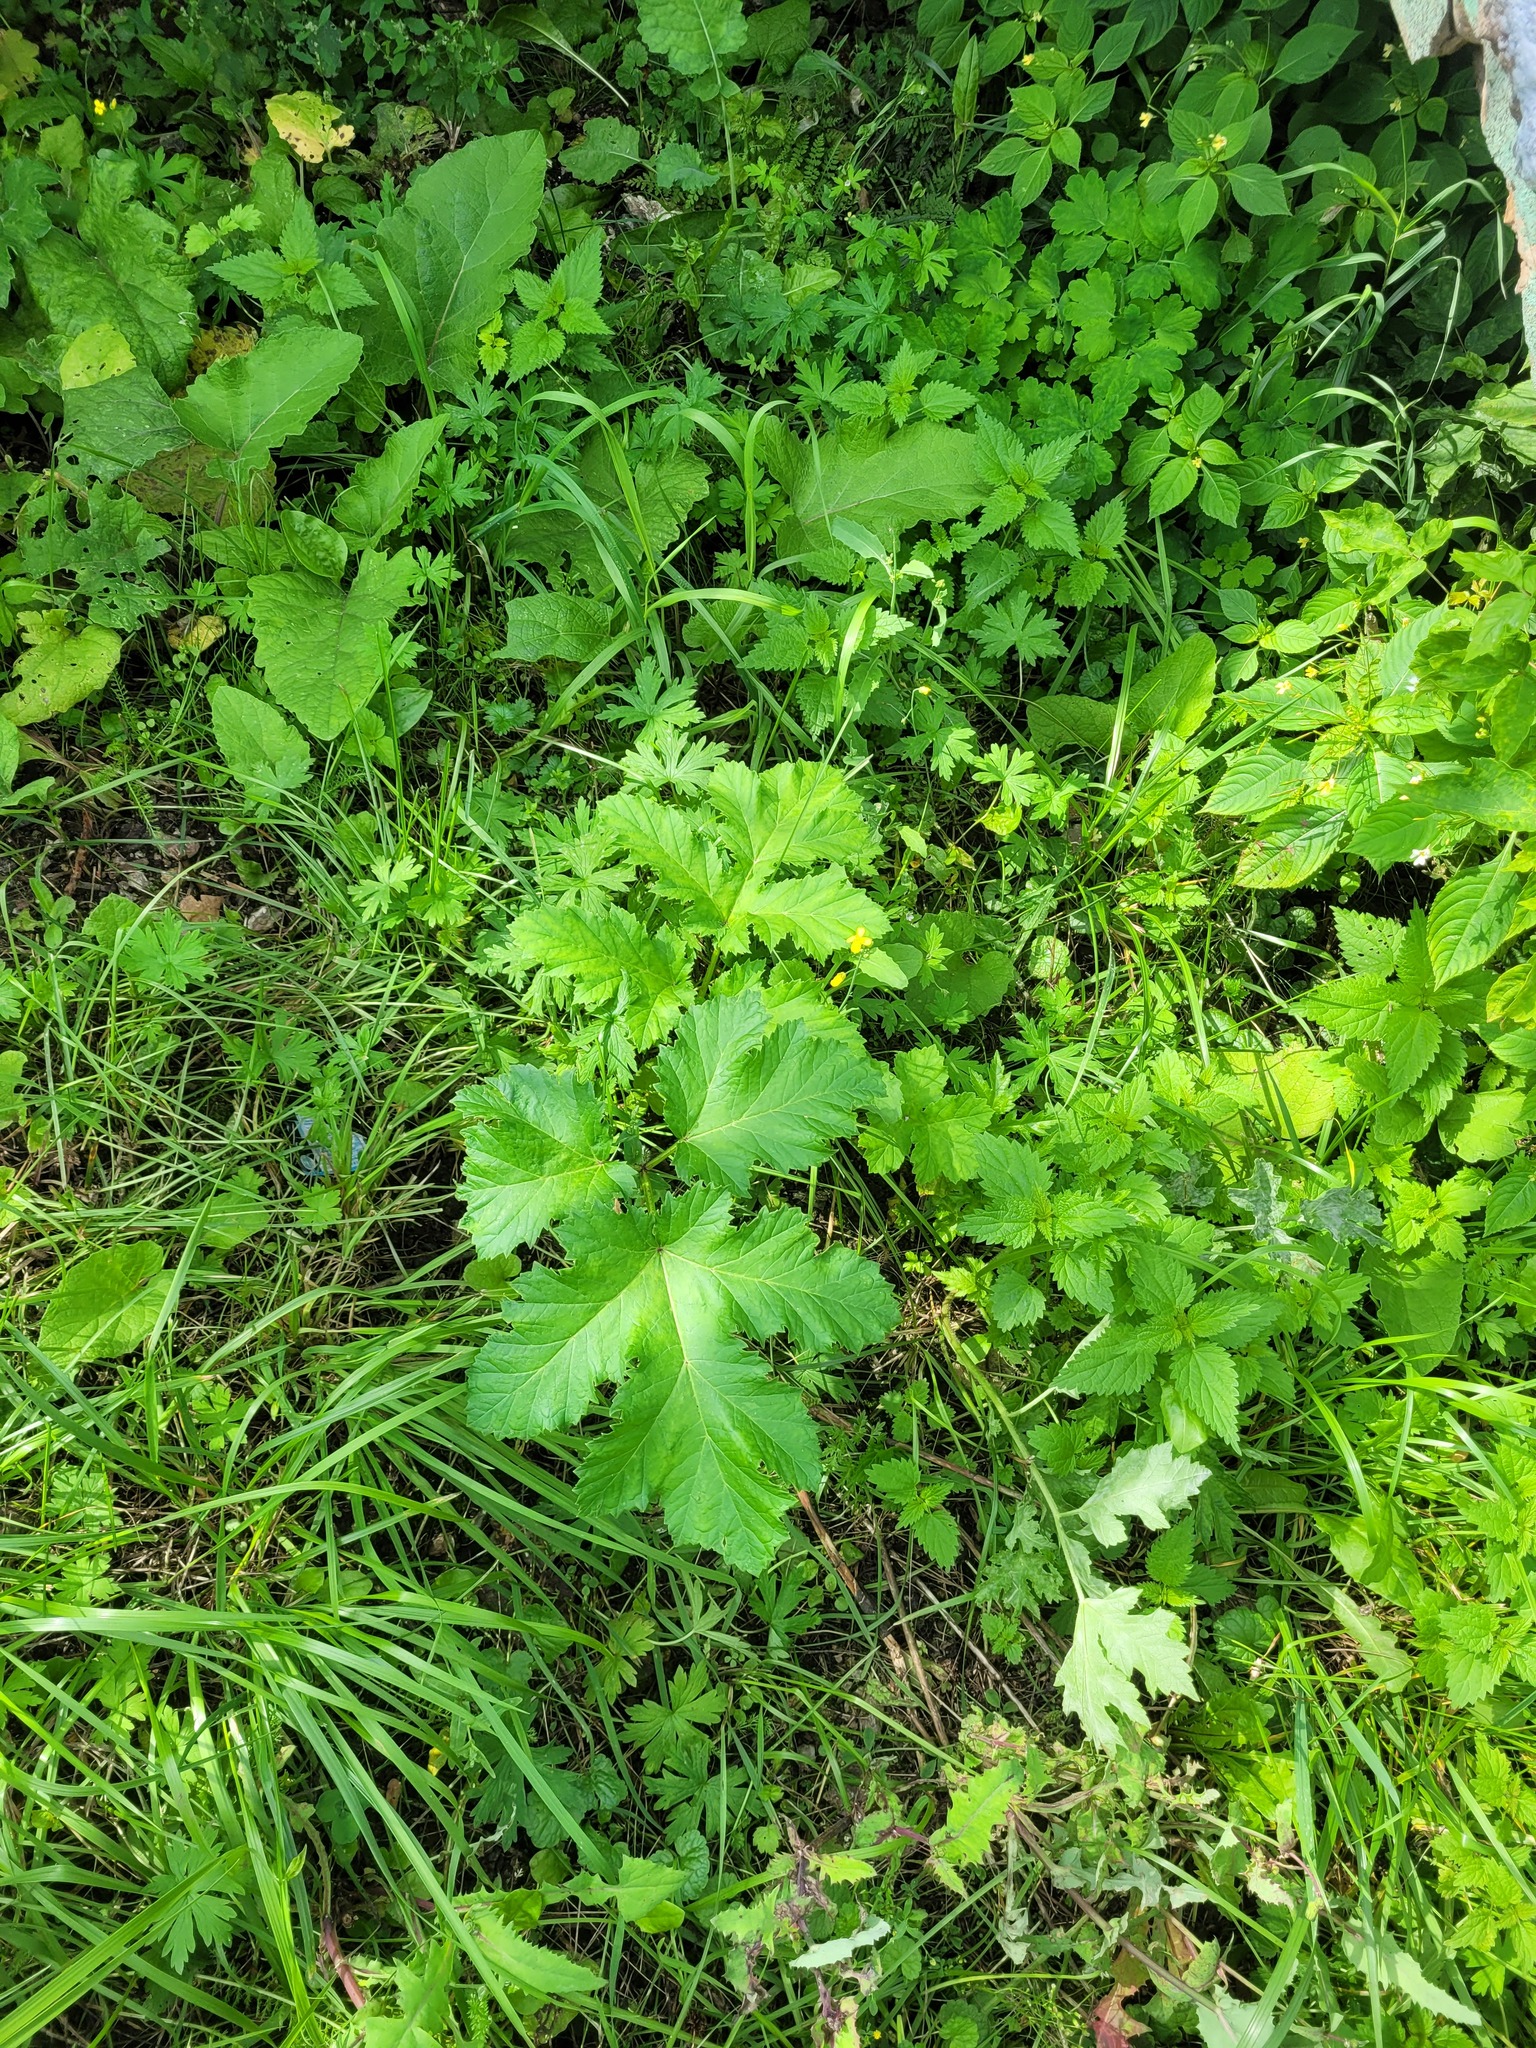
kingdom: Plantae
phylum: Tracheophyta
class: Magnoliopsida
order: Apiales
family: Apiaceae
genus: Heracleum
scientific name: Heracleum sosnowskyi
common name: Sosnowsky's hogweed
